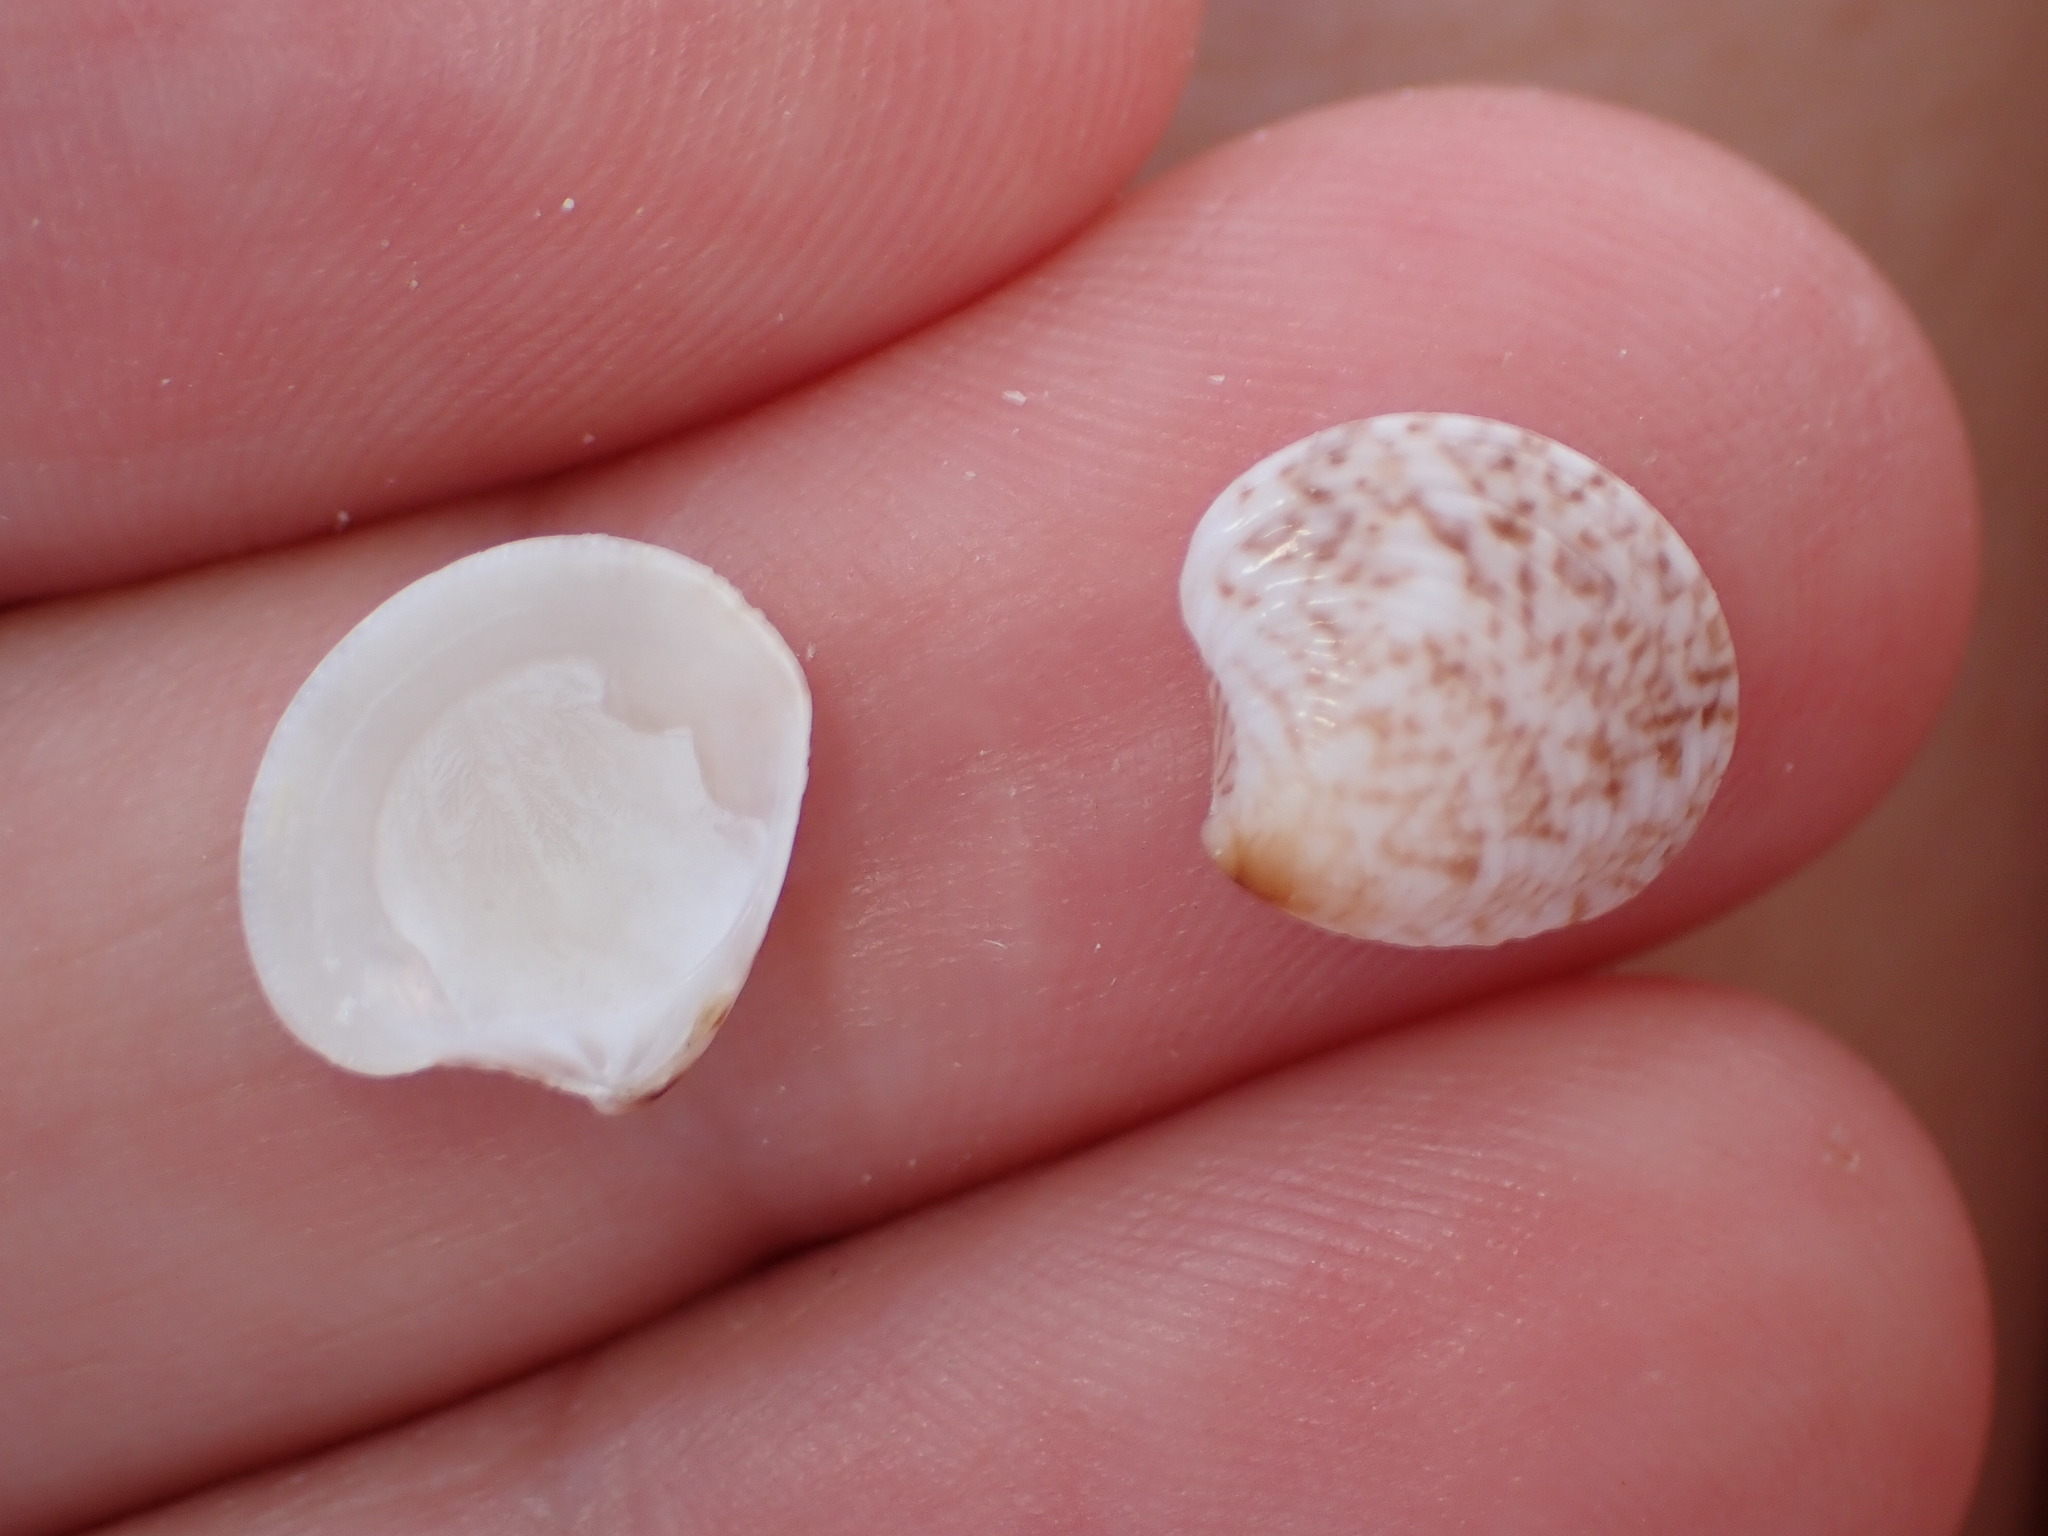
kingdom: Animalia
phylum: Mollusca
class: Bivalvia
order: Venerida
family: Veneridae
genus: Chamelea
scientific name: Chamelea gallina
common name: Chicken venus
